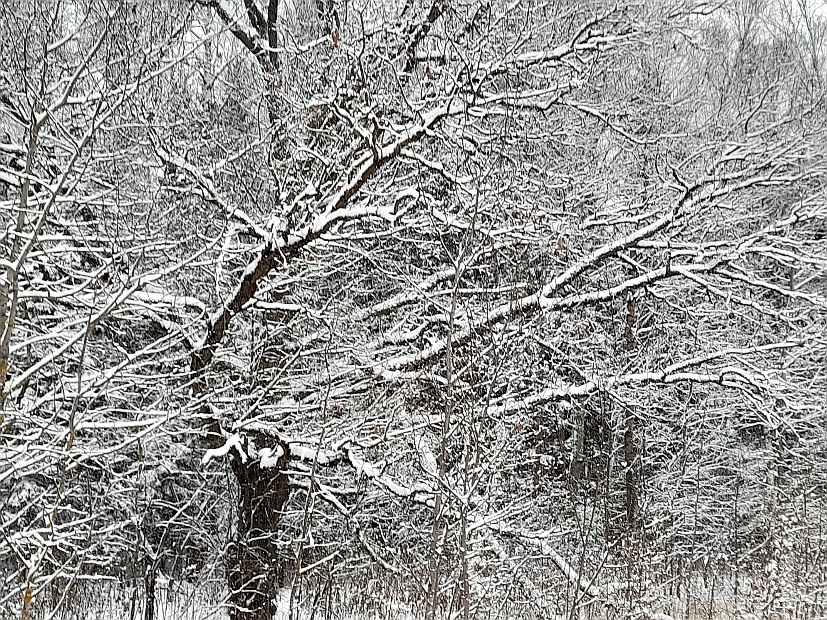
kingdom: Plantae
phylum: Tracheophyta
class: Magnoliopsida
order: Fagales
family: Fagaceae
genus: Quercus
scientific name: Quercus robur
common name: Pedunculate oak
